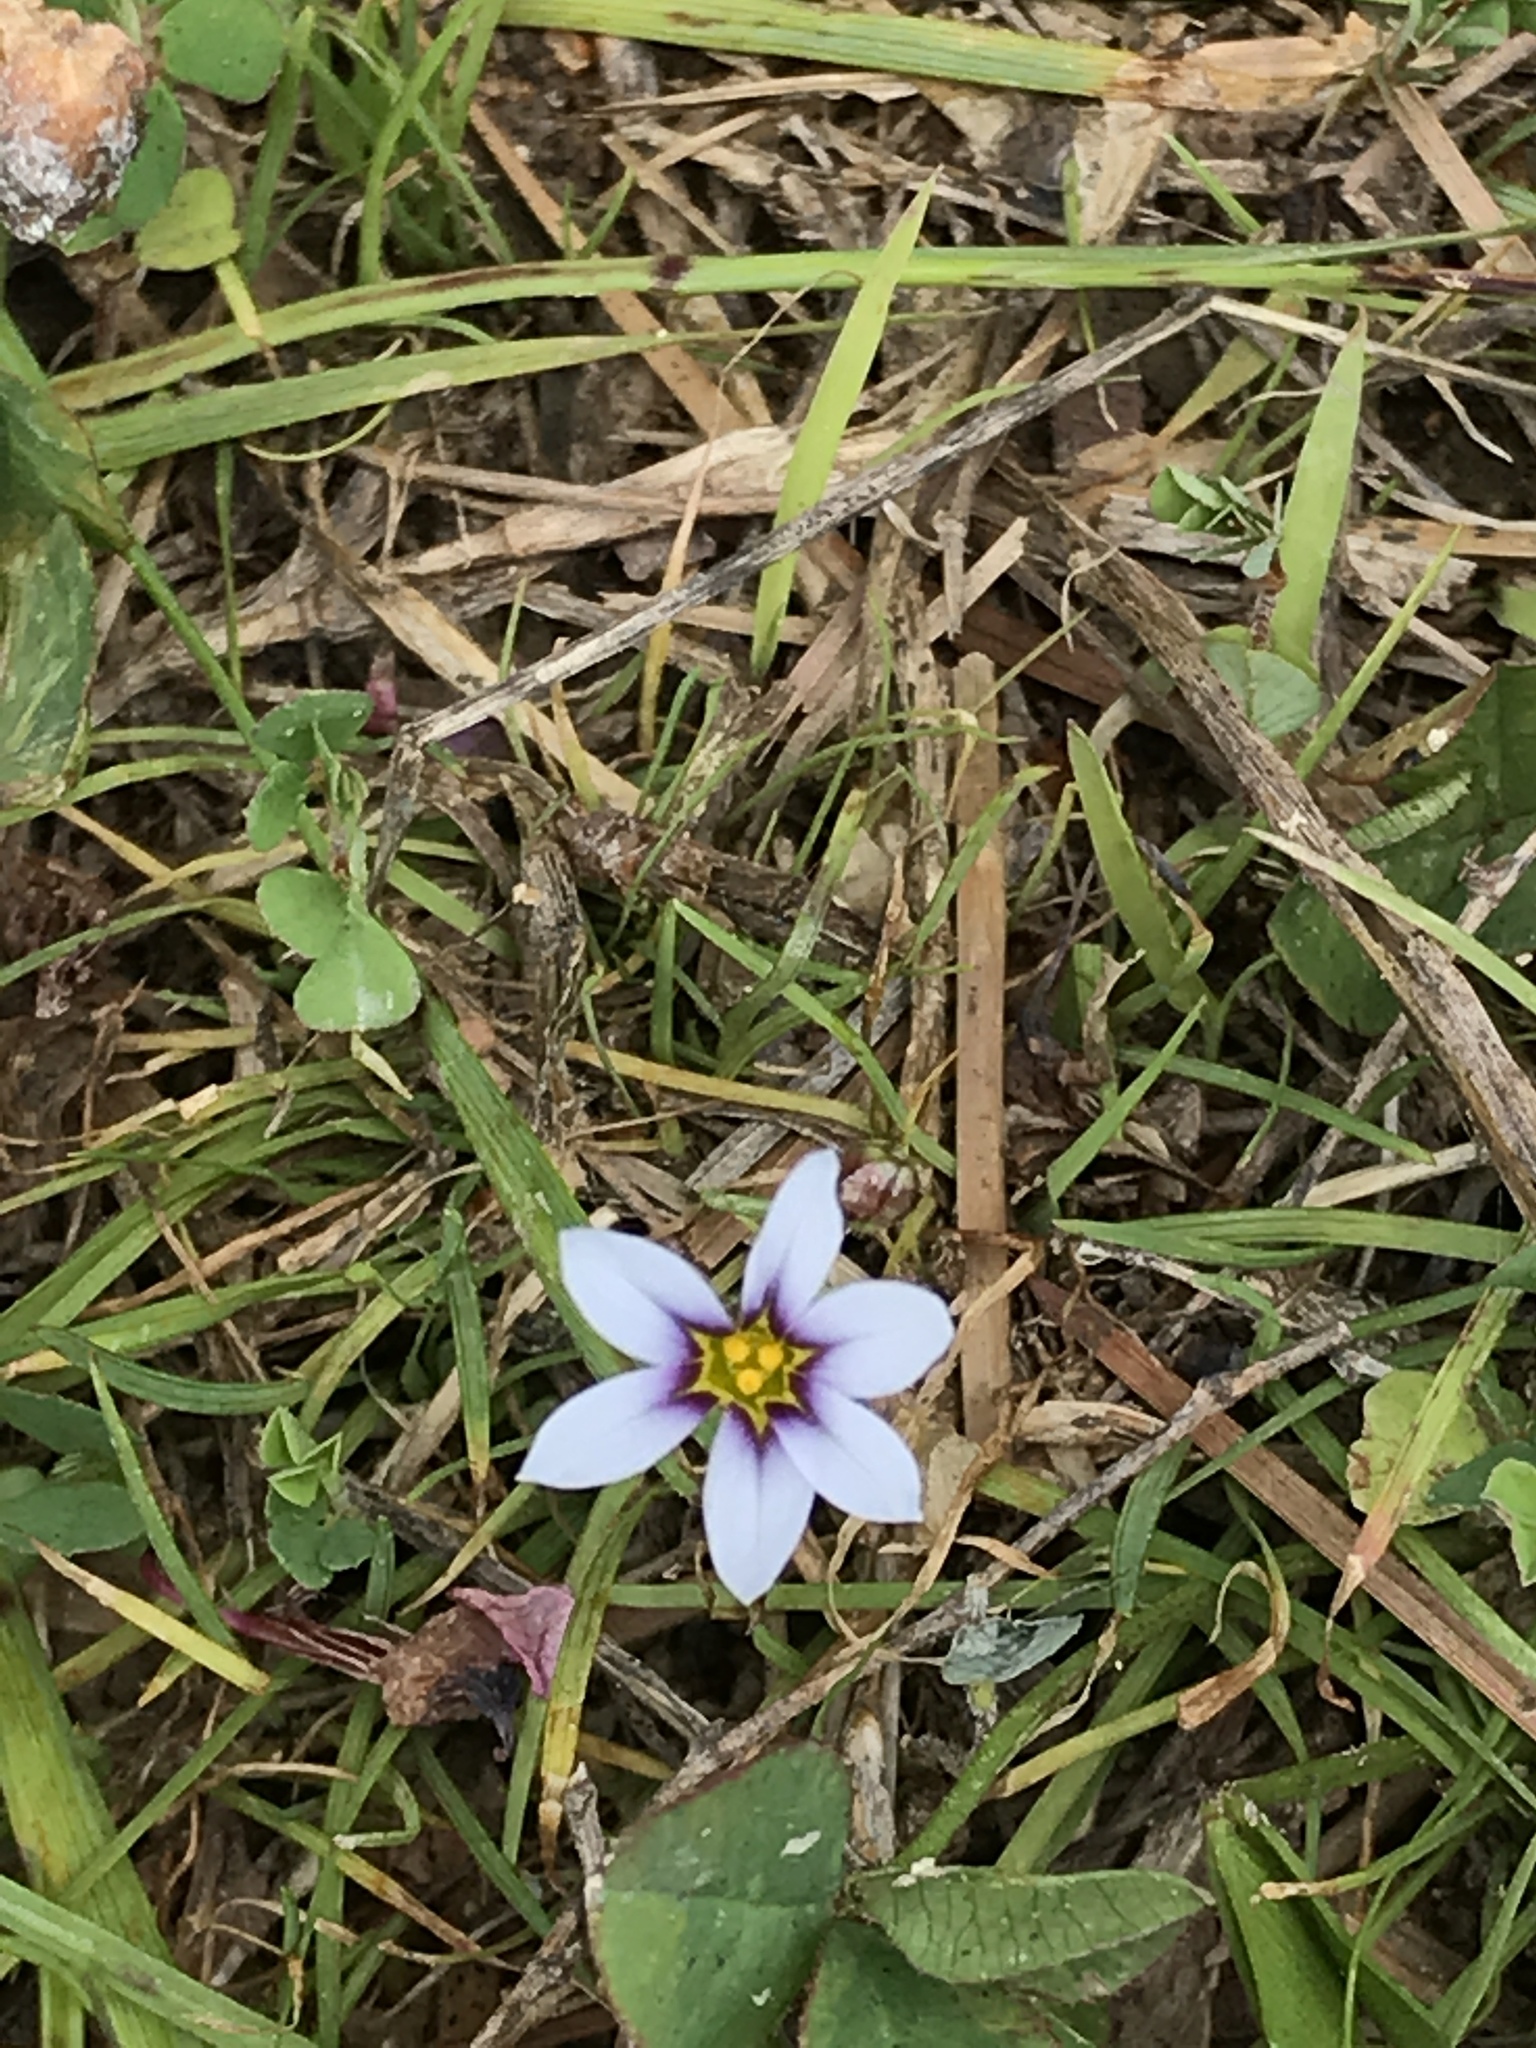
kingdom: Plantae
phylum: Tracheophyta
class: Liliopsida
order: Asparagales
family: Iridaceae
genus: Sisyrinchium
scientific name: Sisyrinchium micranthum
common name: Bermuda pigroot
